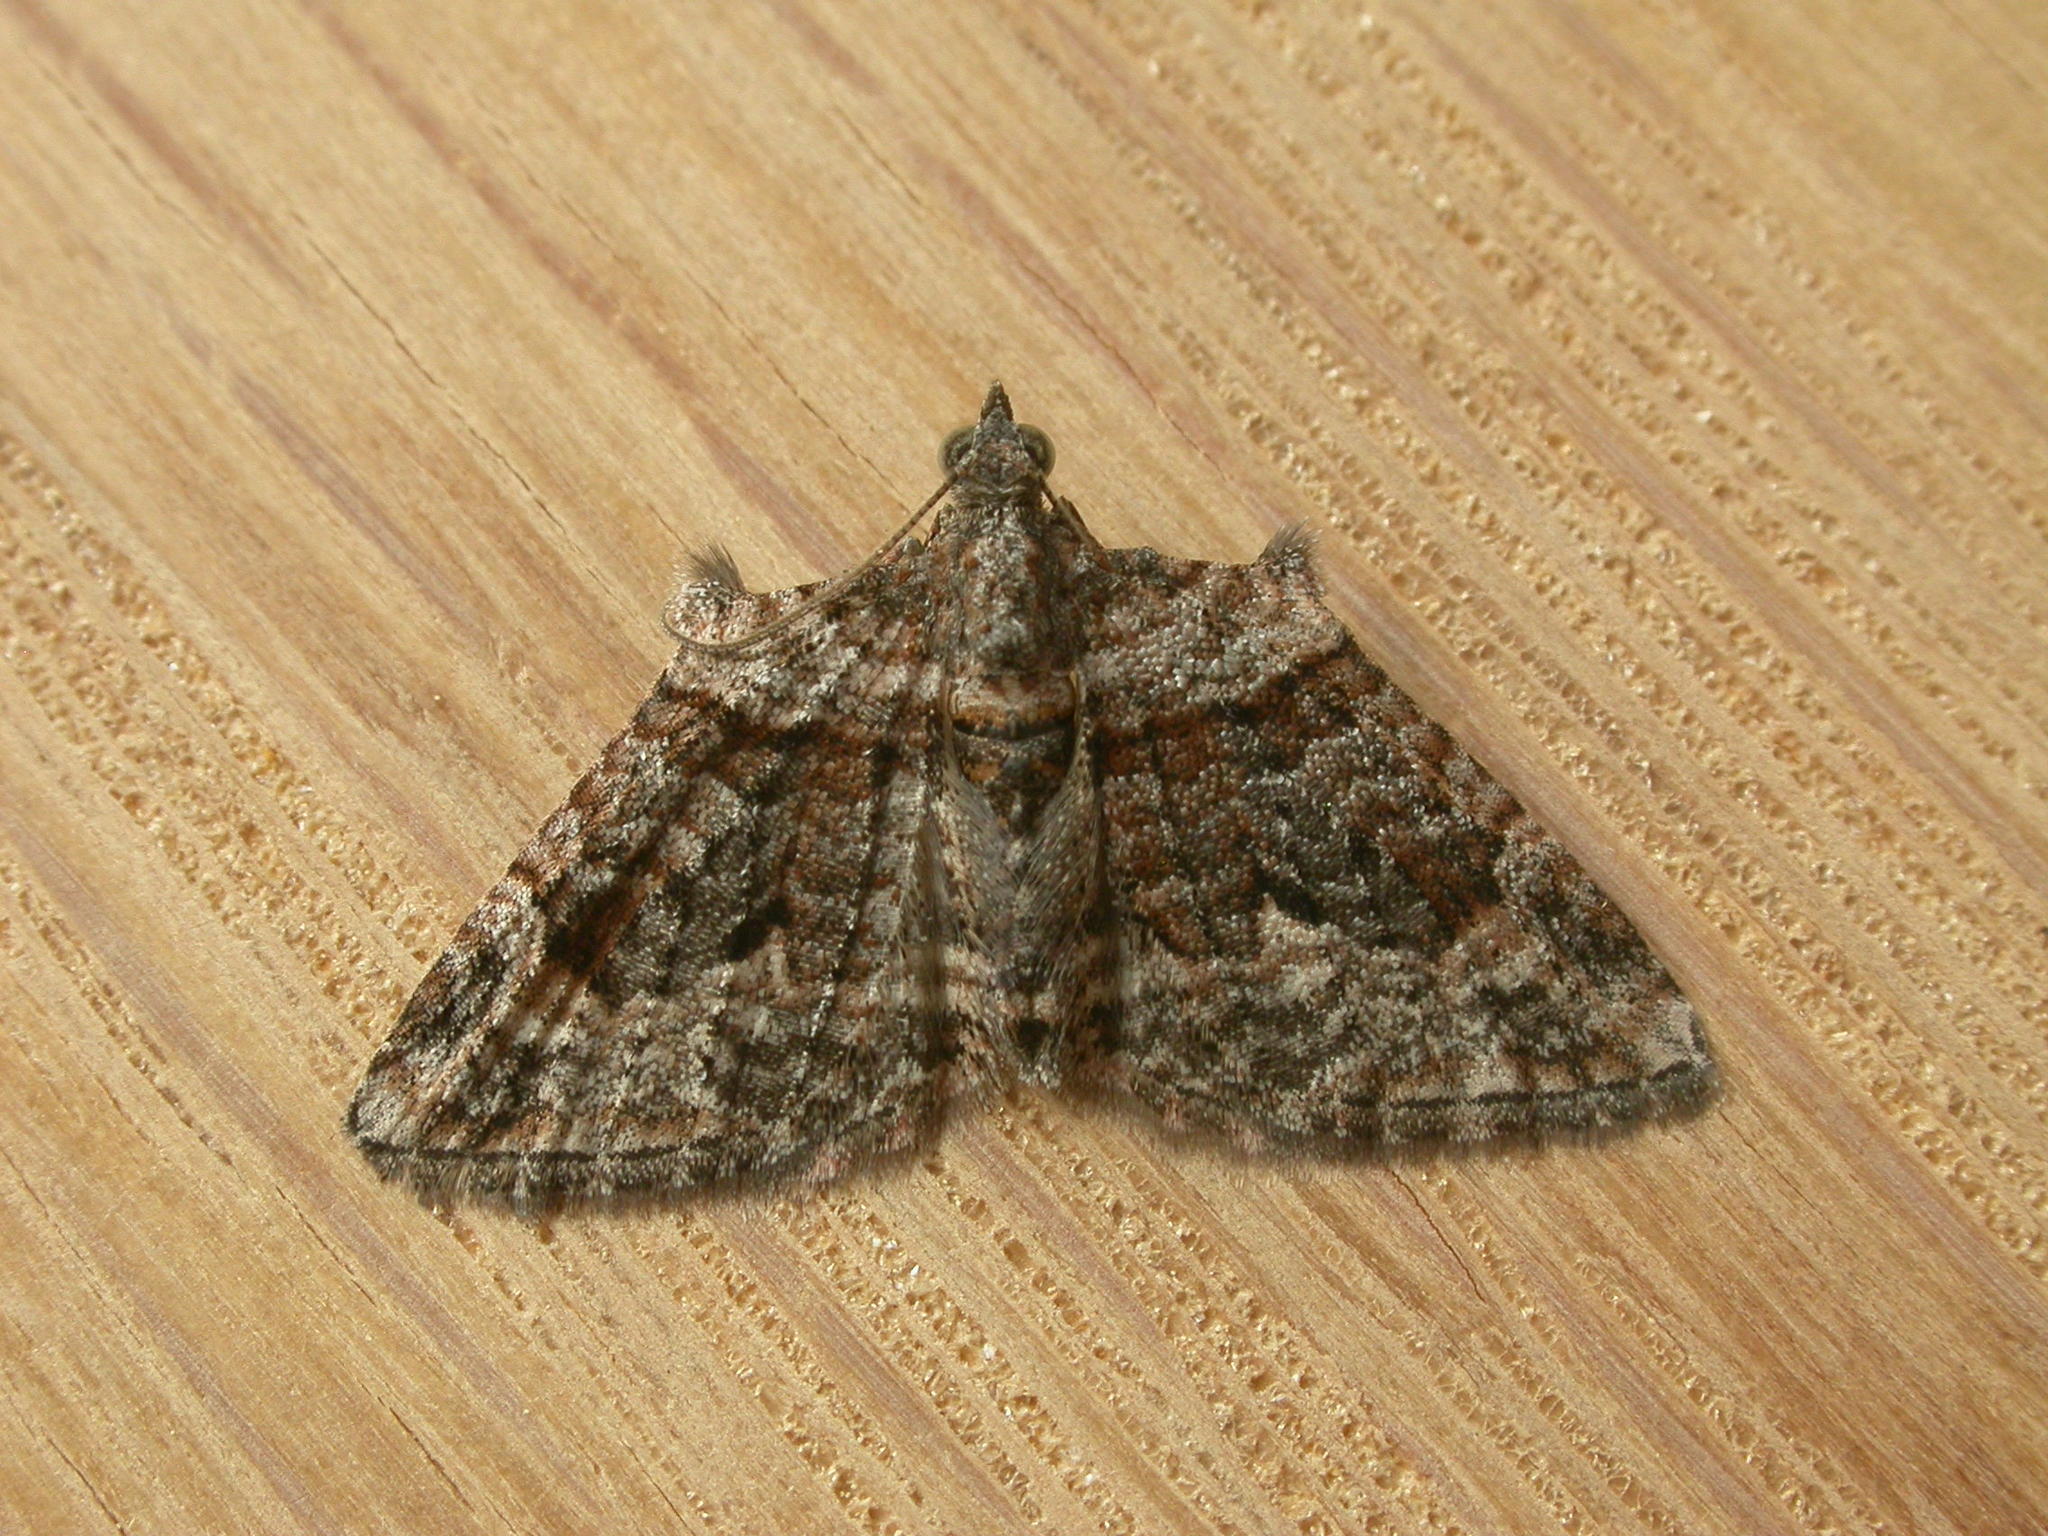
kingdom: Animalia
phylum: Arthropoda
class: Insecta
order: Lepidoptera
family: Geometridae
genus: Phrissogonus
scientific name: Phrissogonus laticostata
